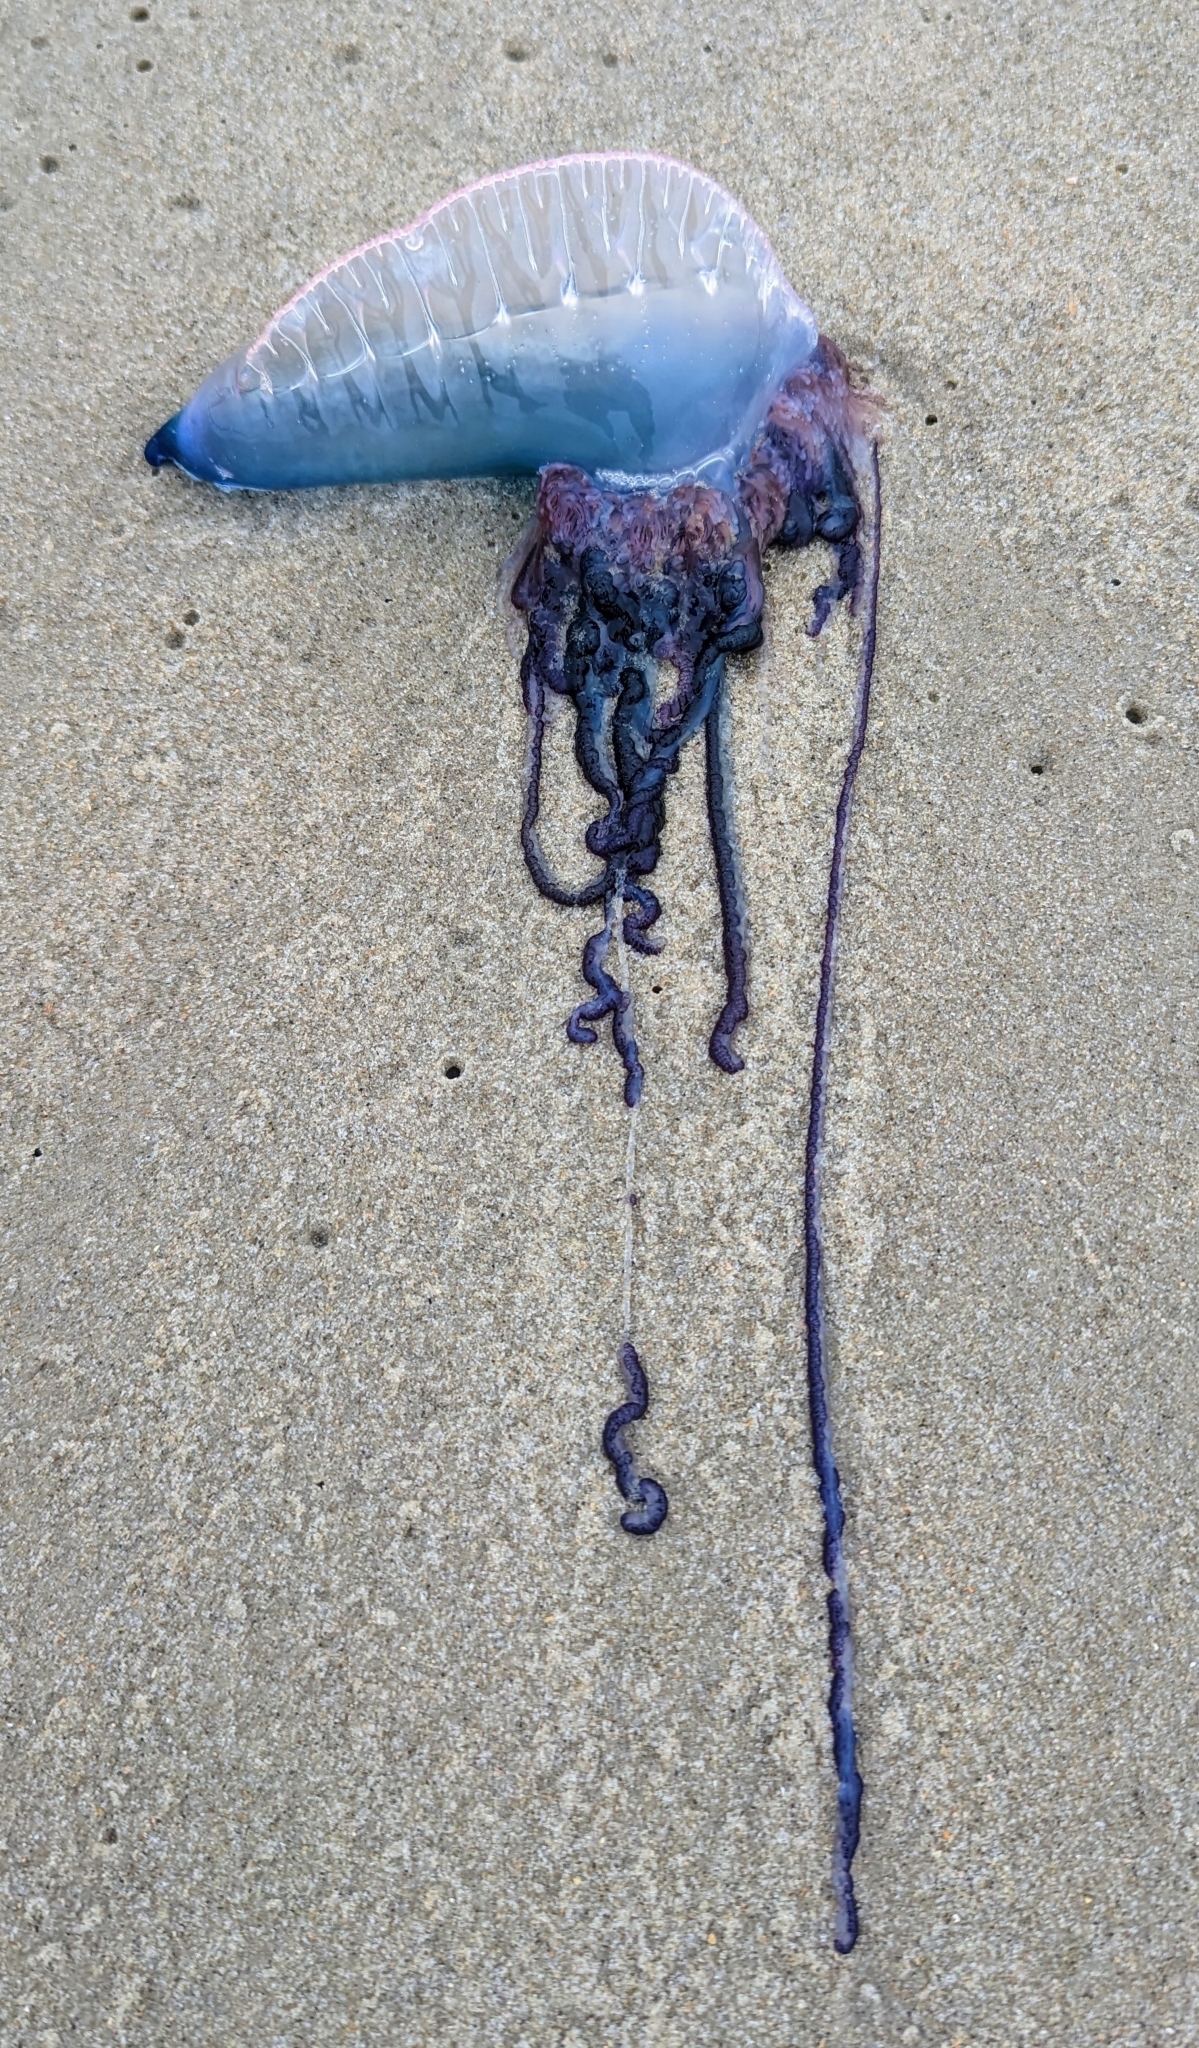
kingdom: Animalia
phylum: Cnidaria
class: Hydrozoa
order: Siphonophorae
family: Physaliidae
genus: Physalia
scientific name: Physalia physalis
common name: Portuguese man-of-war
